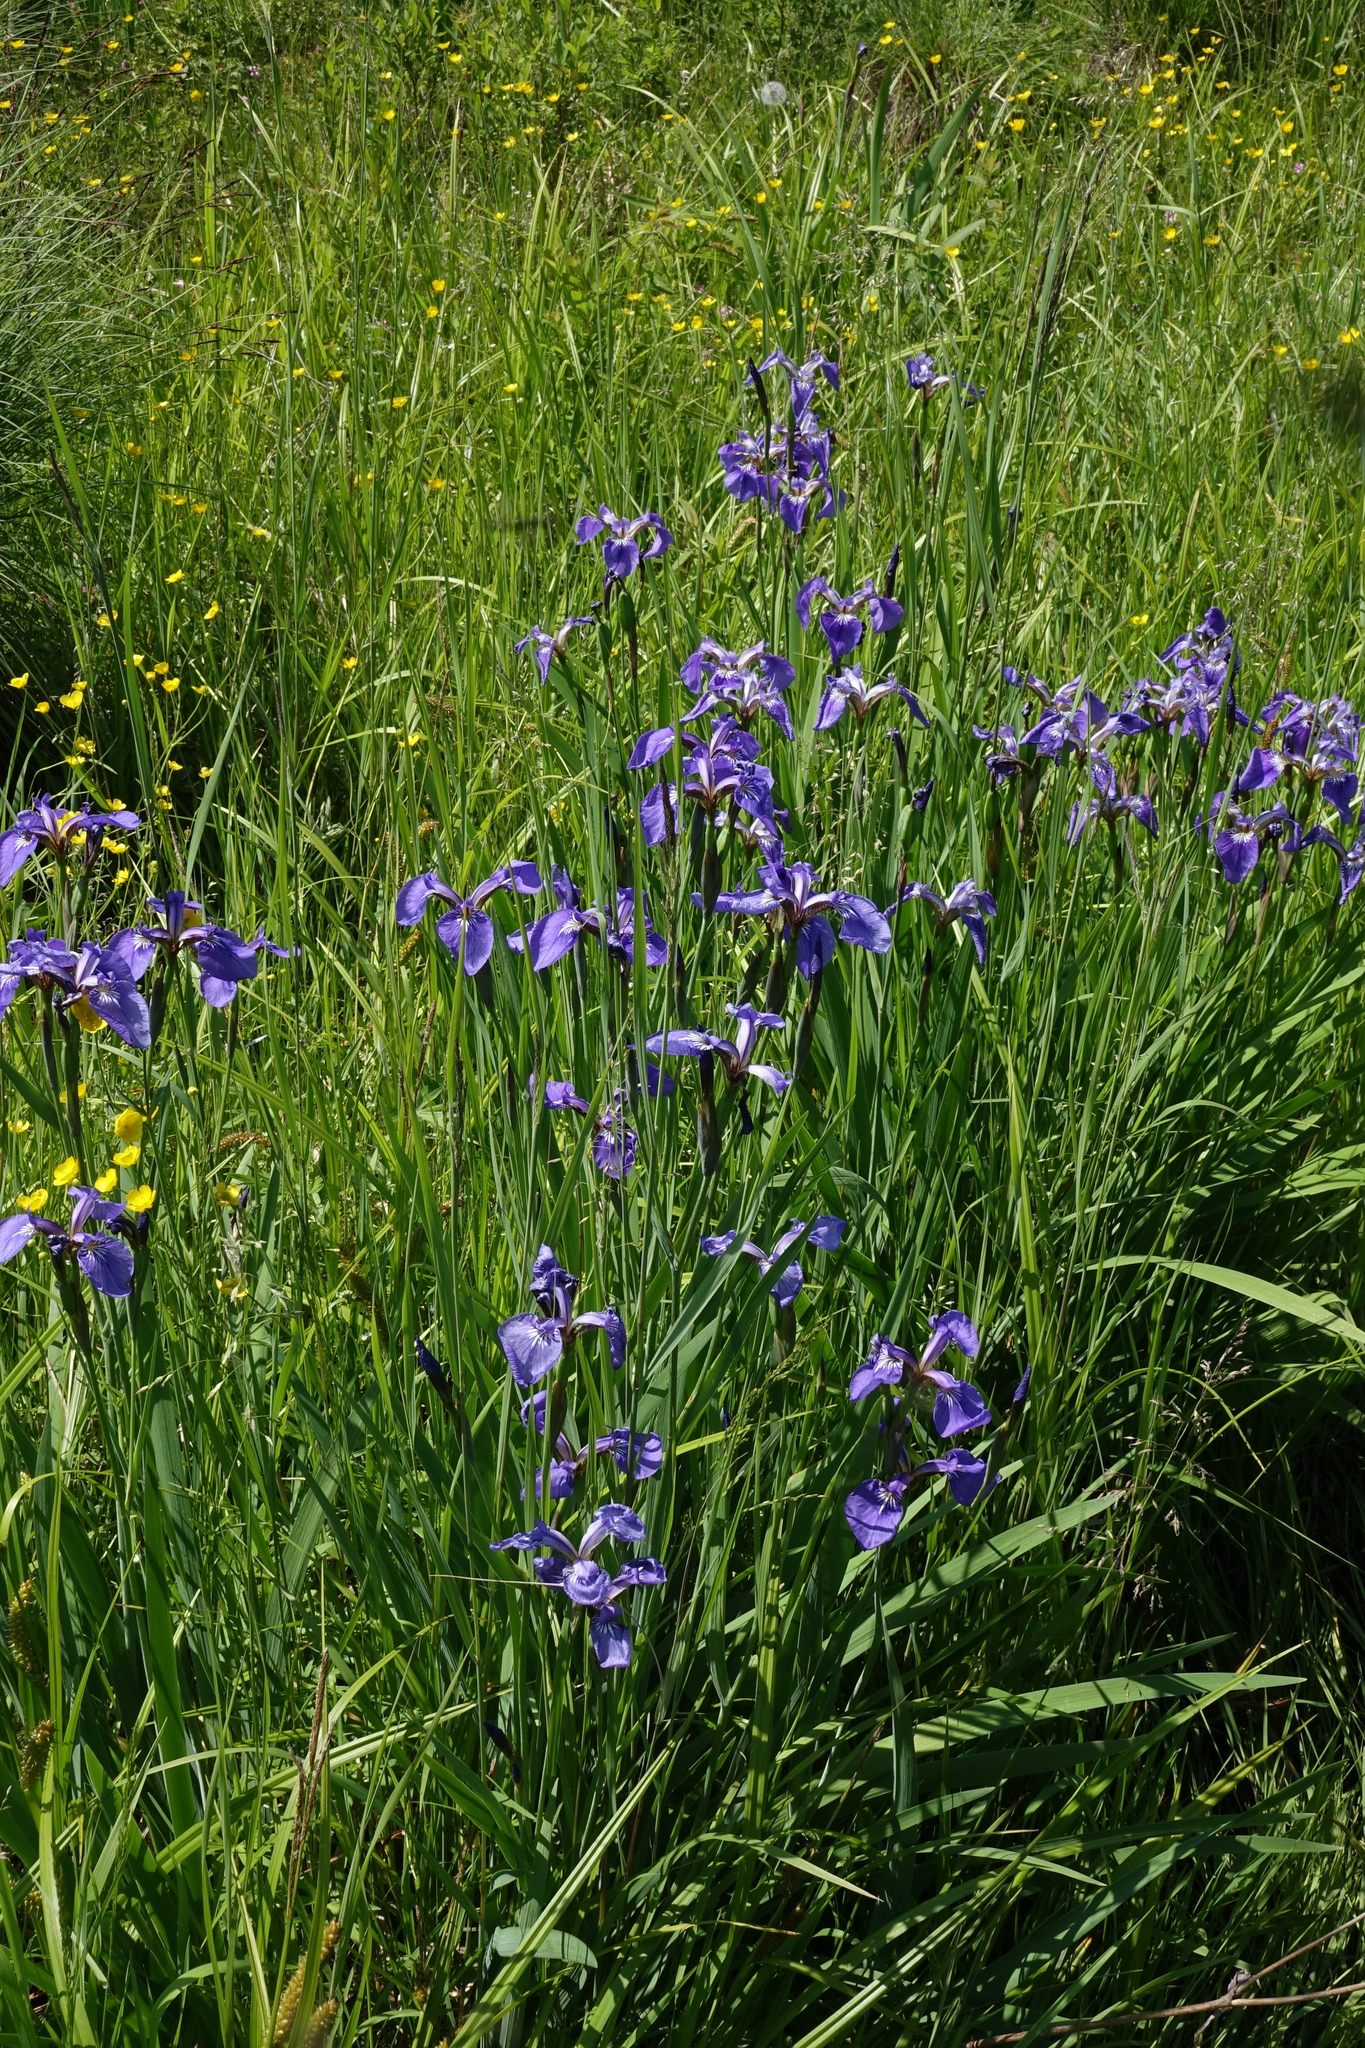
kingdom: Plantae
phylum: Tracheophyta
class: Liliopsida
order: Asparagales
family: Iridaceae
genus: Iris
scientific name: Iris setosa
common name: Arctic blue flag
